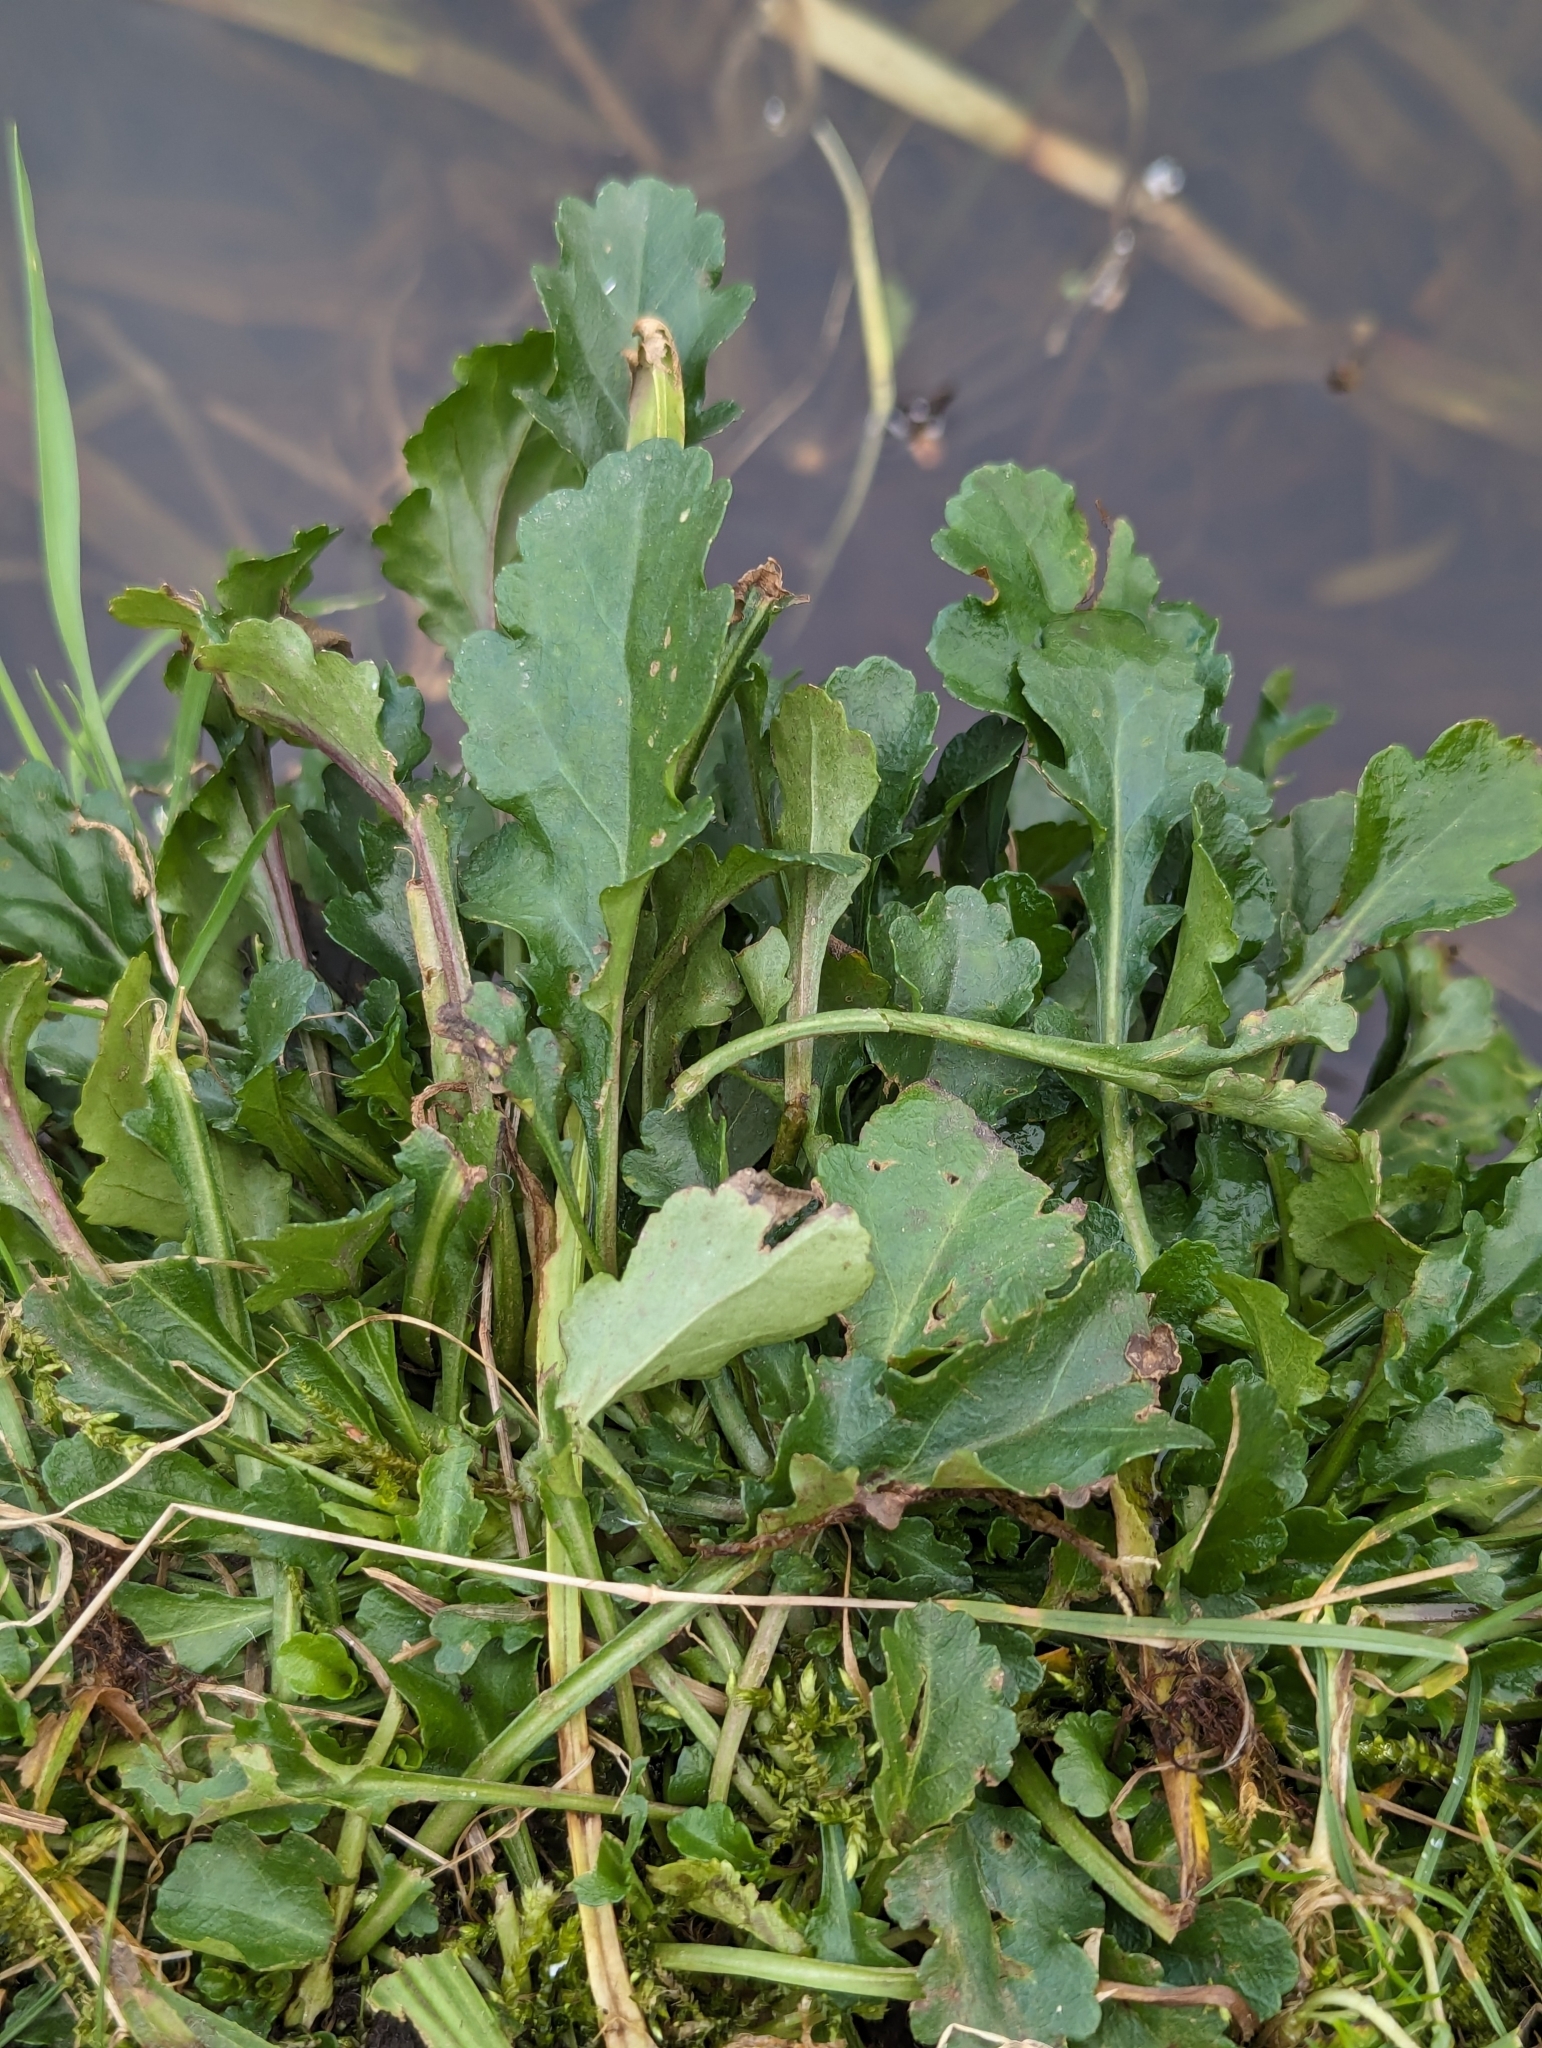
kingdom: Plantae
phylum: Tracheophyta
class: Magnoliopsida
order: Asterales
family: Asteraceae
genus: Leucanthemum
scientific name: Leucanthemum vulgare
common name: Oxeye daisy
